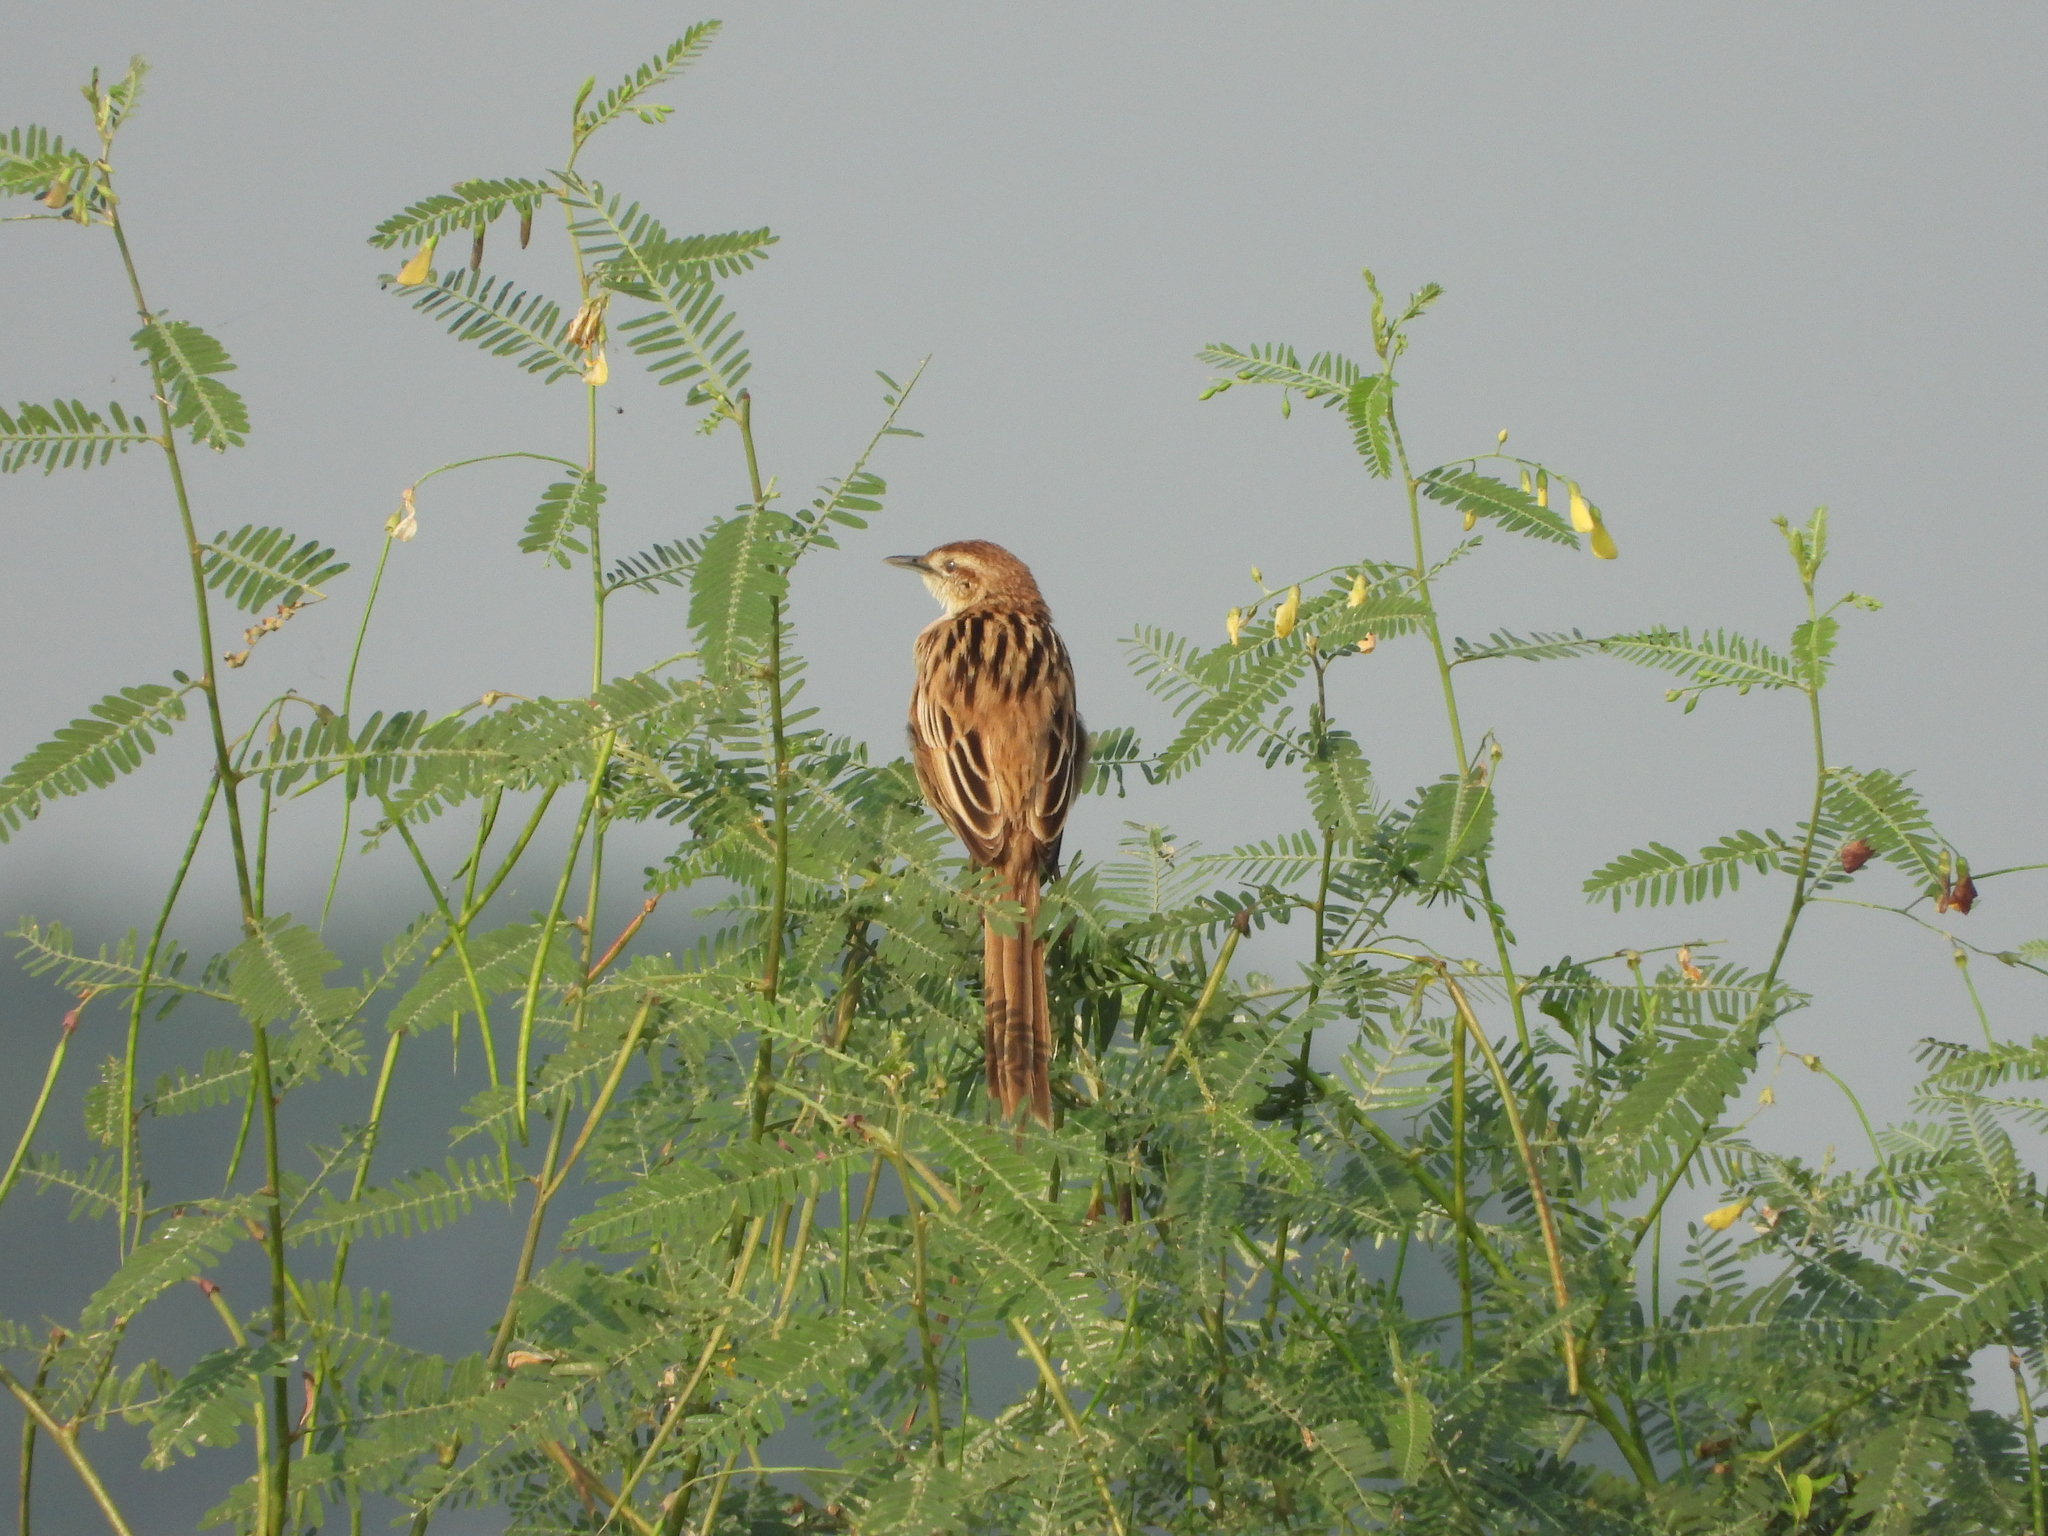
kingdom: Animalia
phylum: Chordata
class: Aves
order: Passeriformes
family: Locustellidae
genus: Megalurus
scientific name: Megalurus palustris
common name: Striated grassbird
